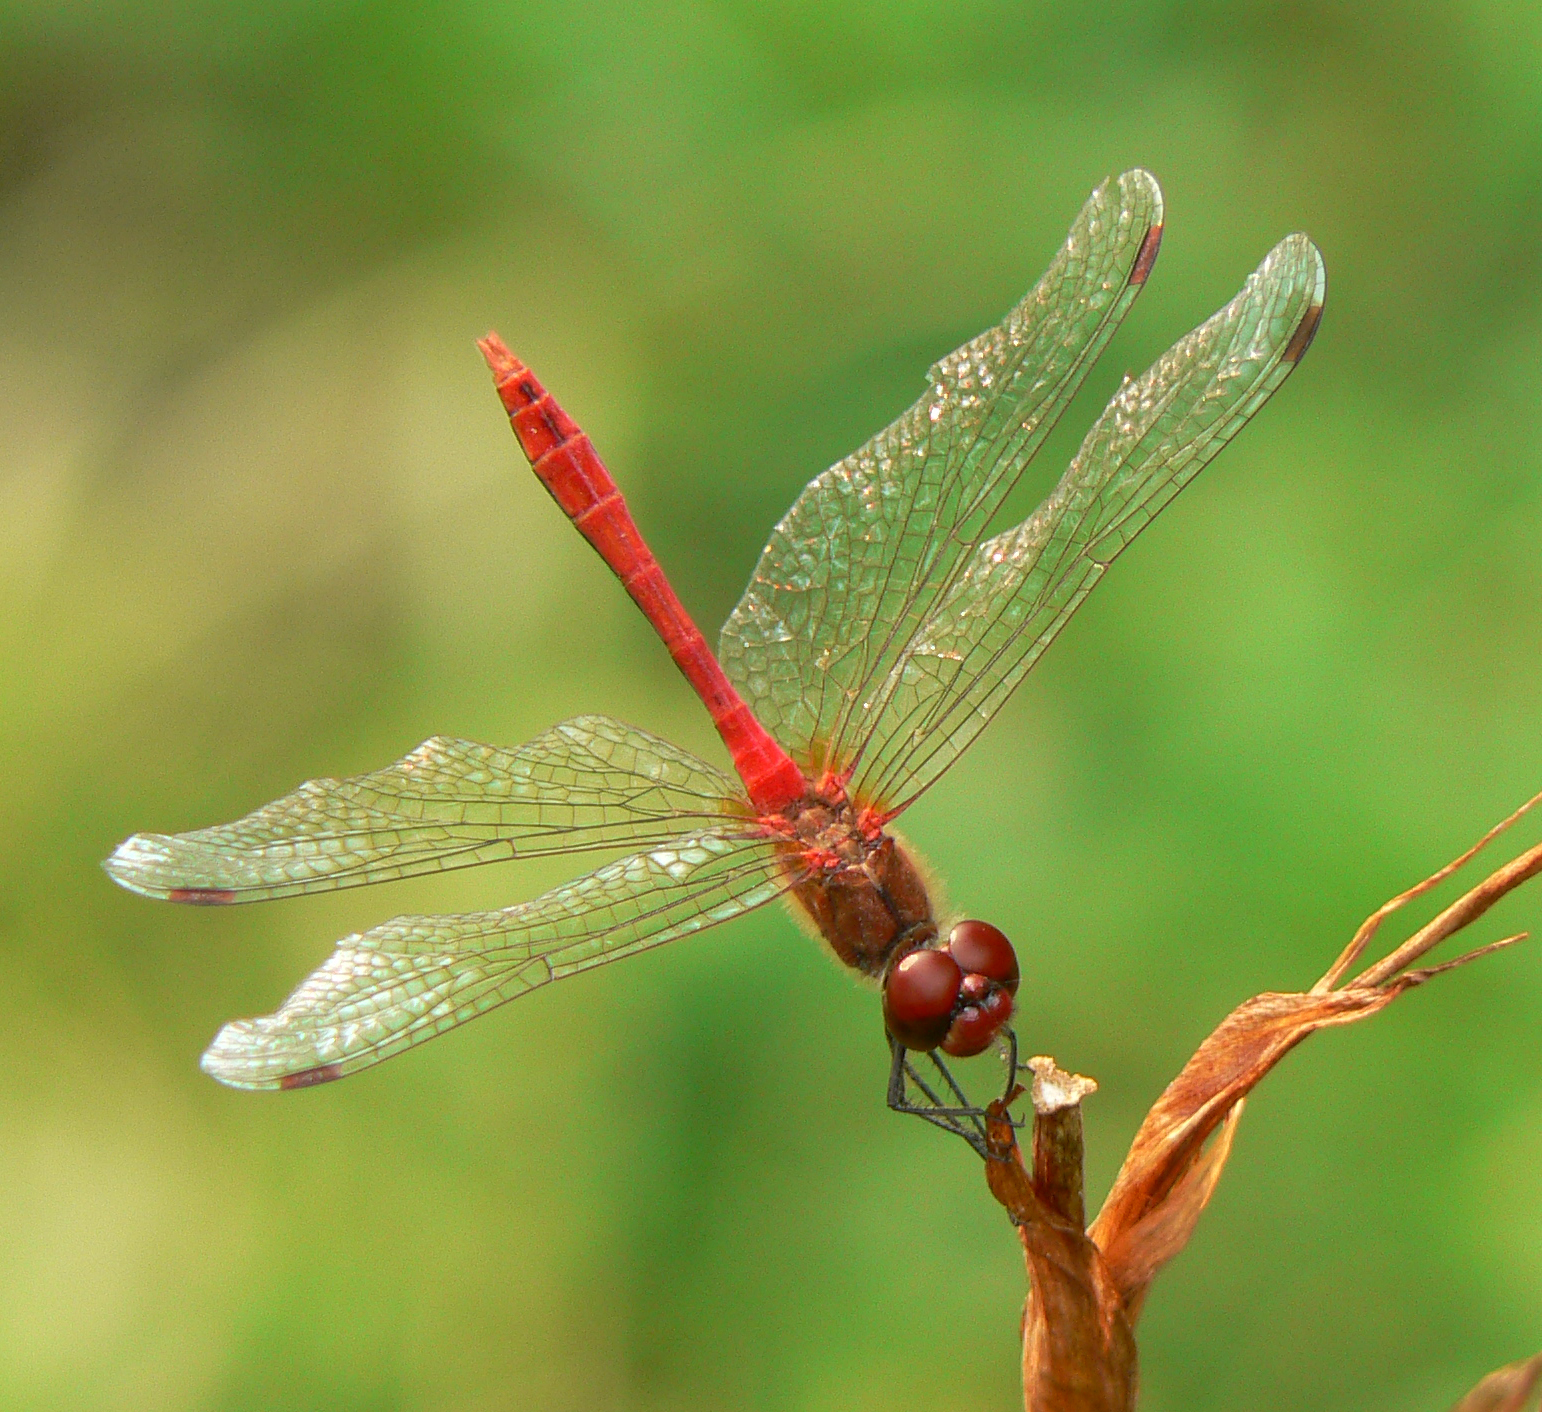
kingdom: Animalia
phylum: Arthropoda
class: Insecta
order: Odonata
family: Libellulidae
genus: Sympetrum
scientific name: Sympetrum sanguineum
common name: Ruddy darter
